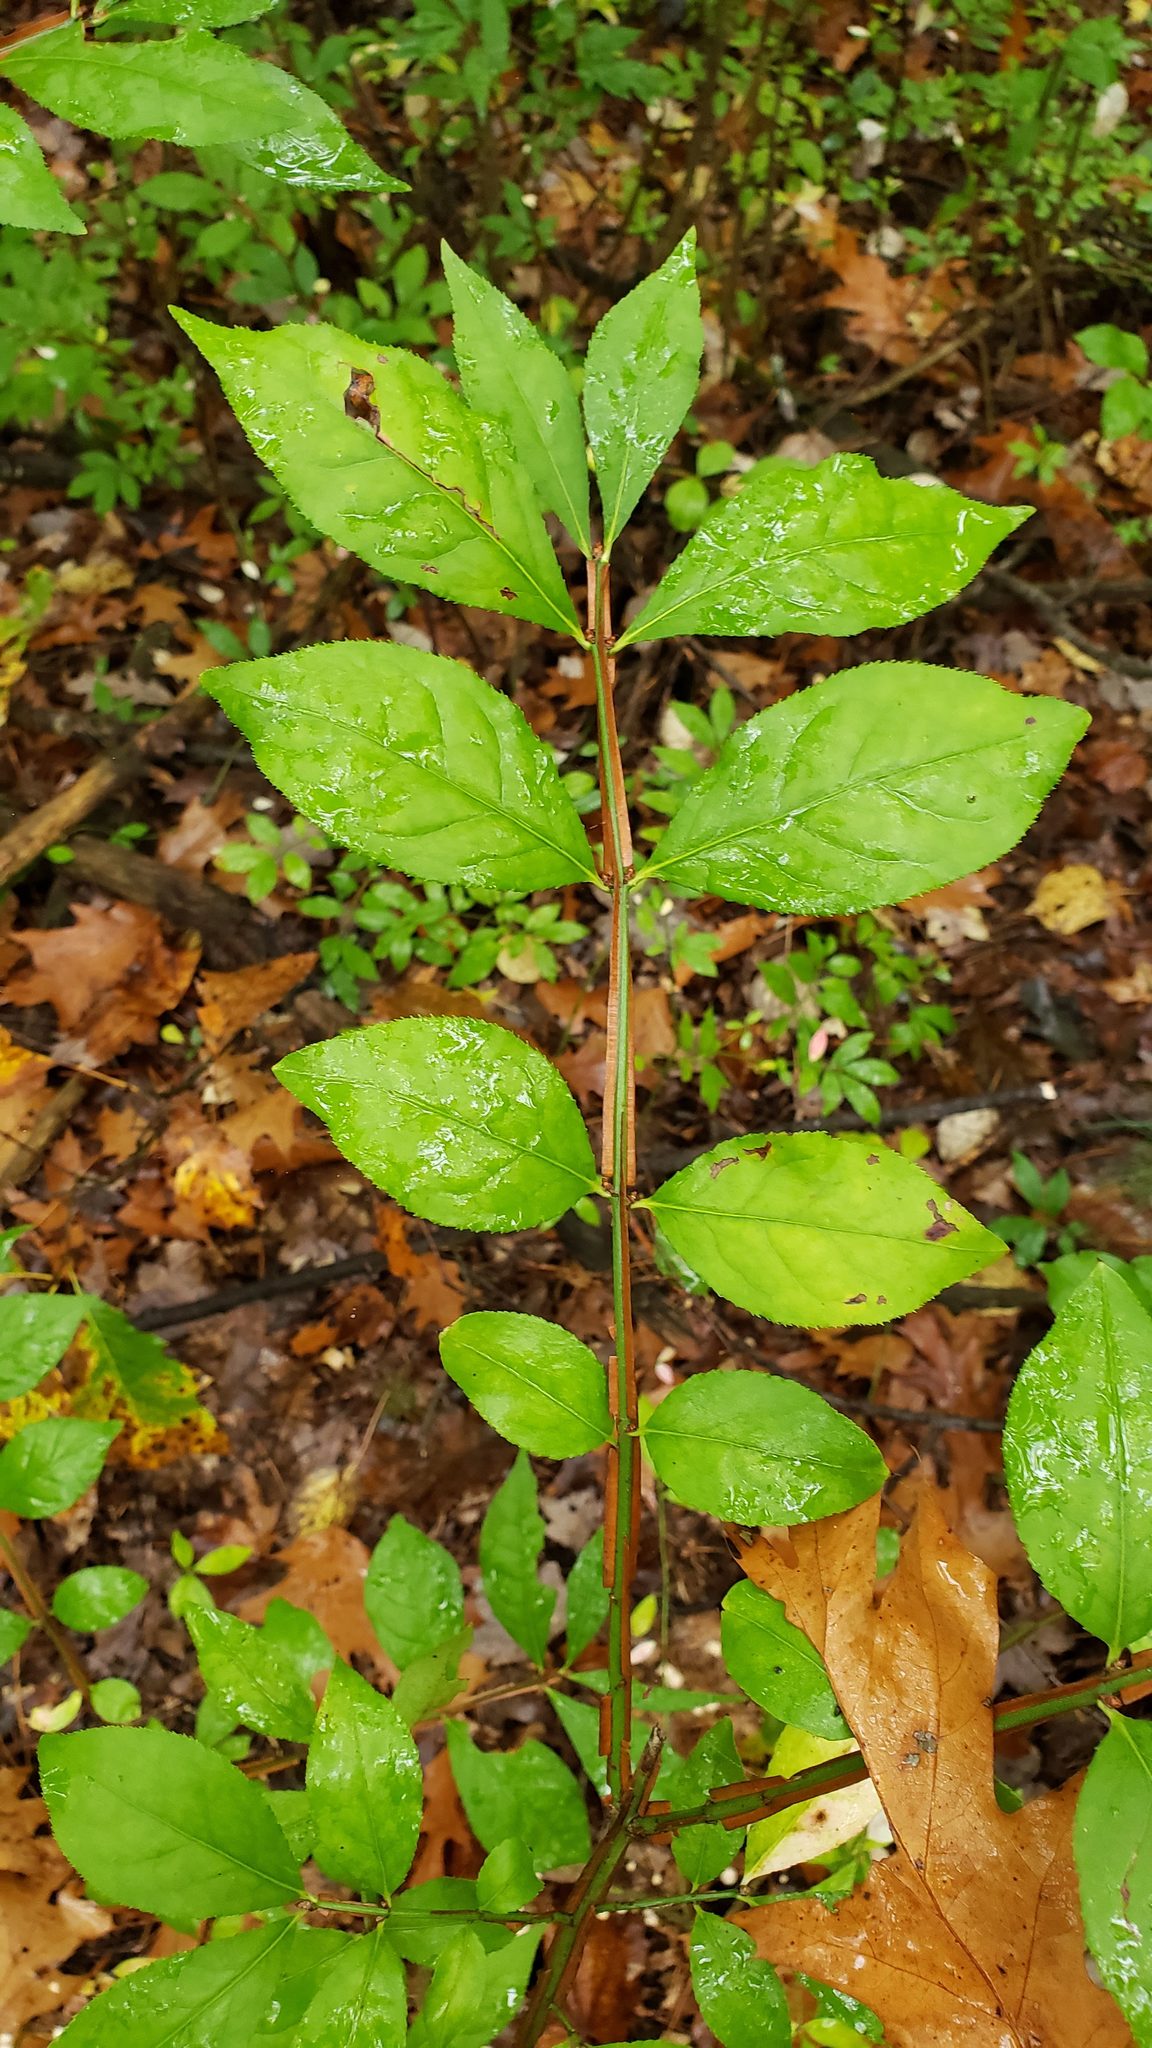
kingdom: Plantae
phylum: Tracheophyta
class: Magnoliopsida
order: Celastrales
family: Celastraceae
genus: Euonymus
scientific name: Euonymus alatus
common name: Winged euonymus
